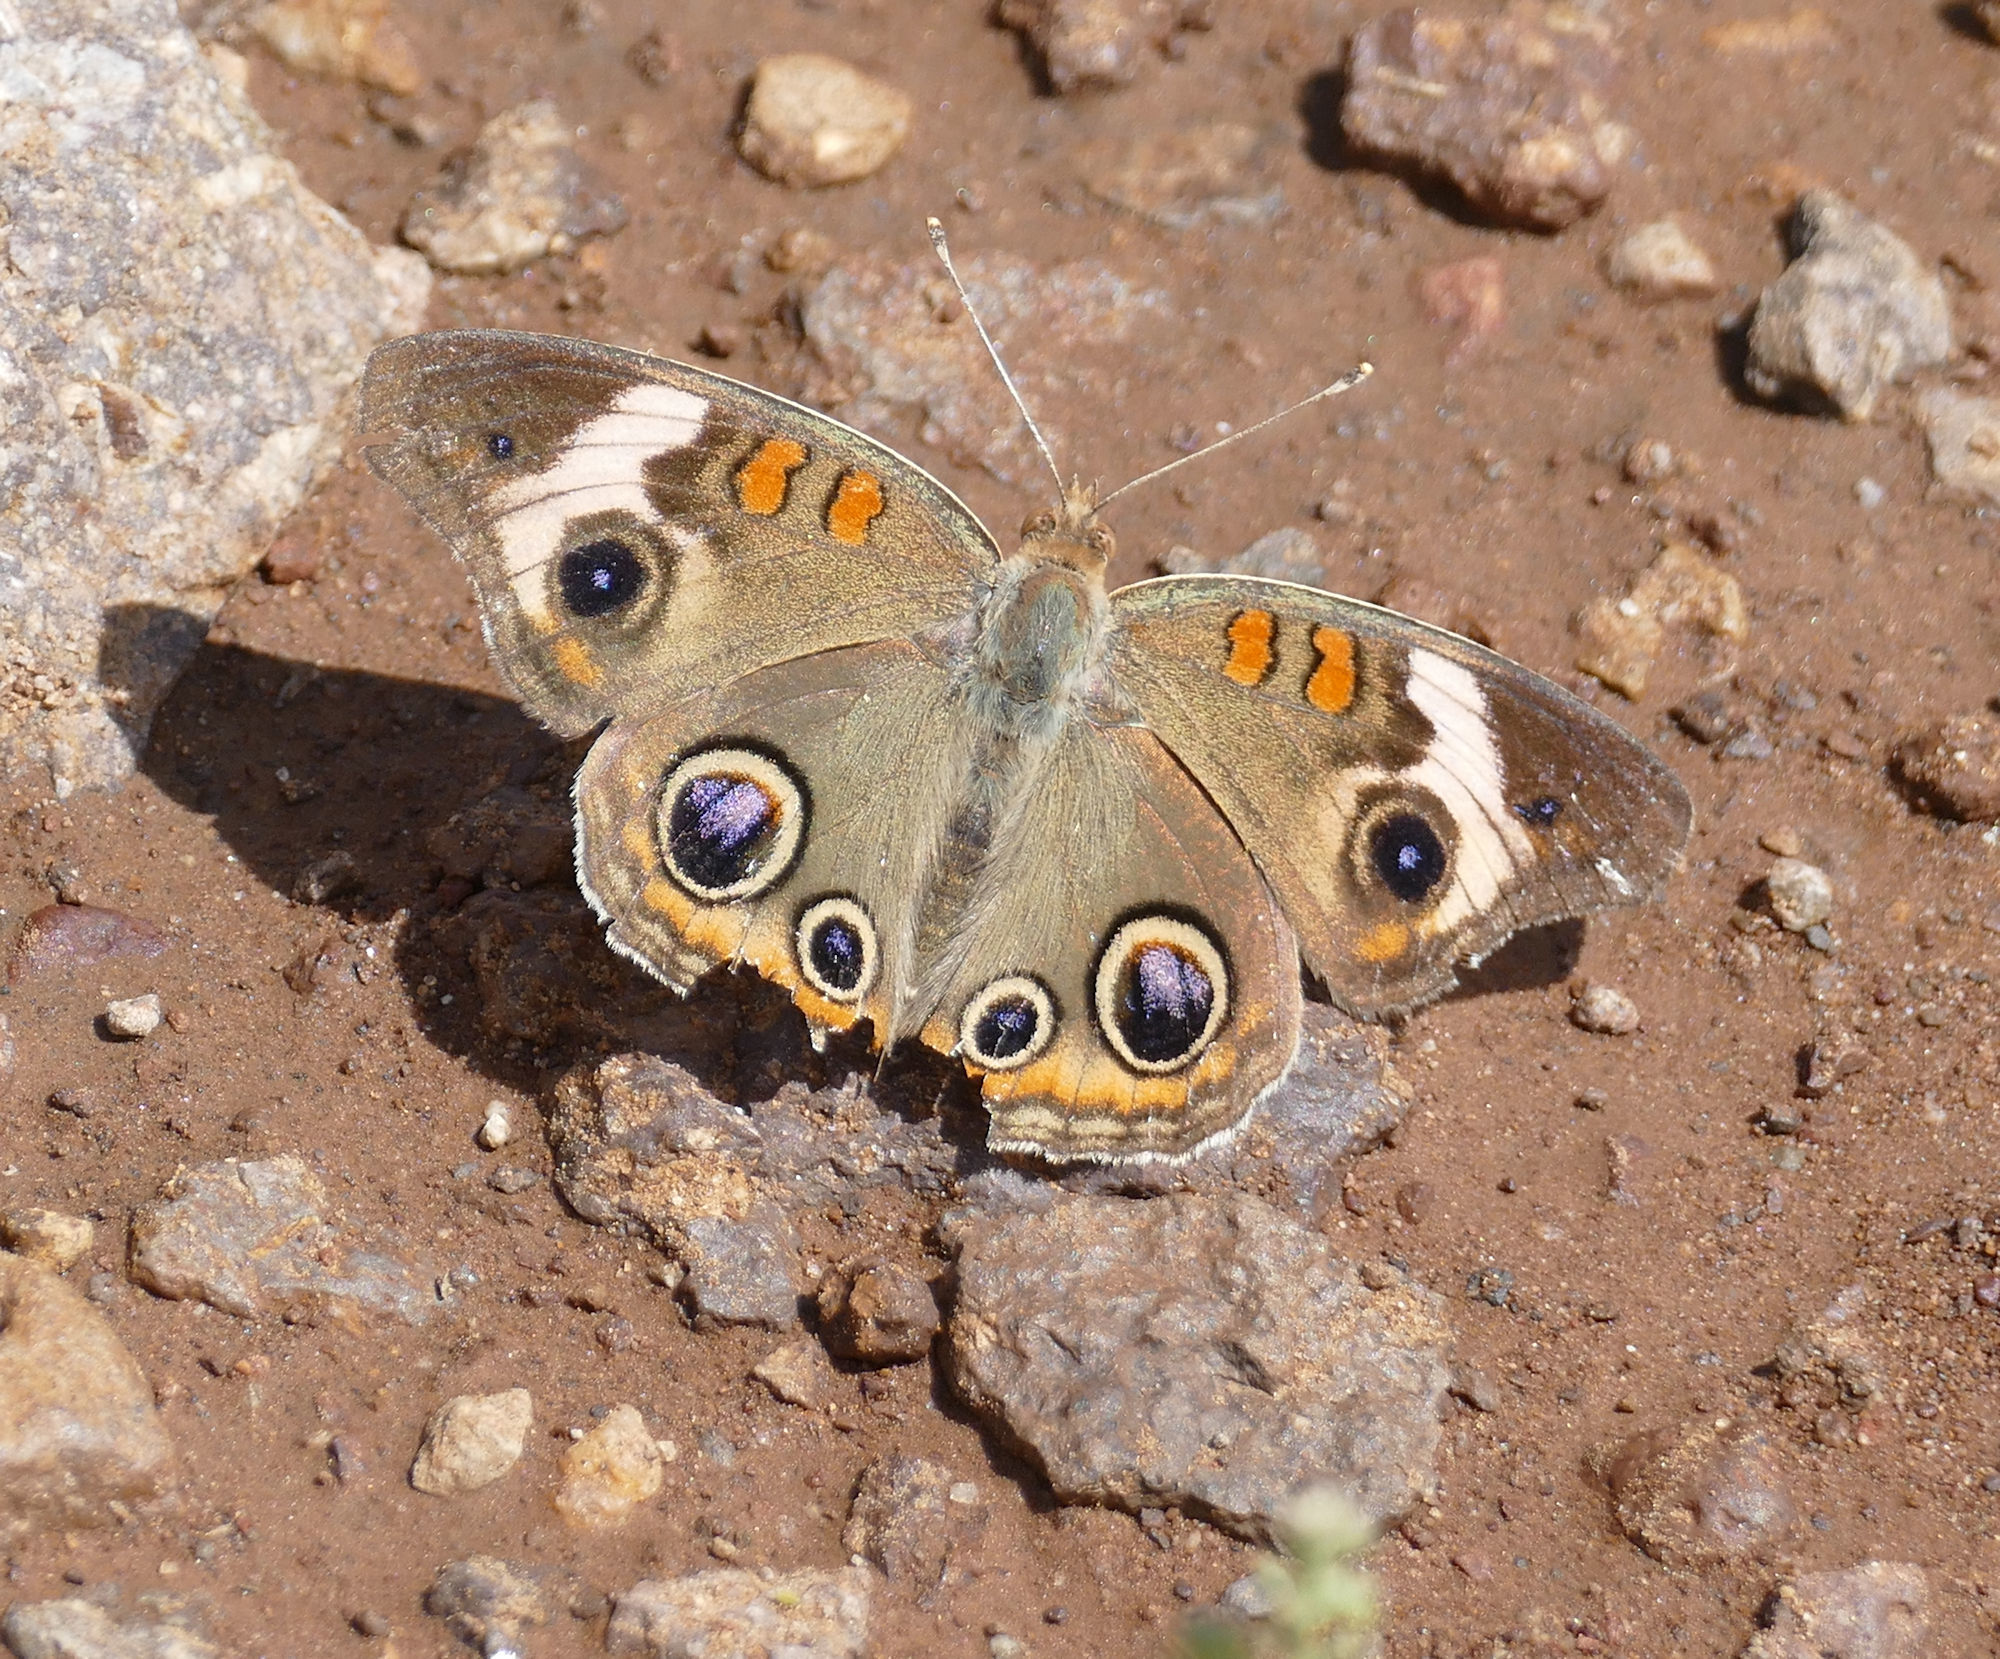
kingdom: Animalia
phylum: Arthropoda
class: Insecta
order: Lepidoptera
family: Nymphalidae
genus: Junonia
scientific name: Junonia coenia
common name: Common buckeye
